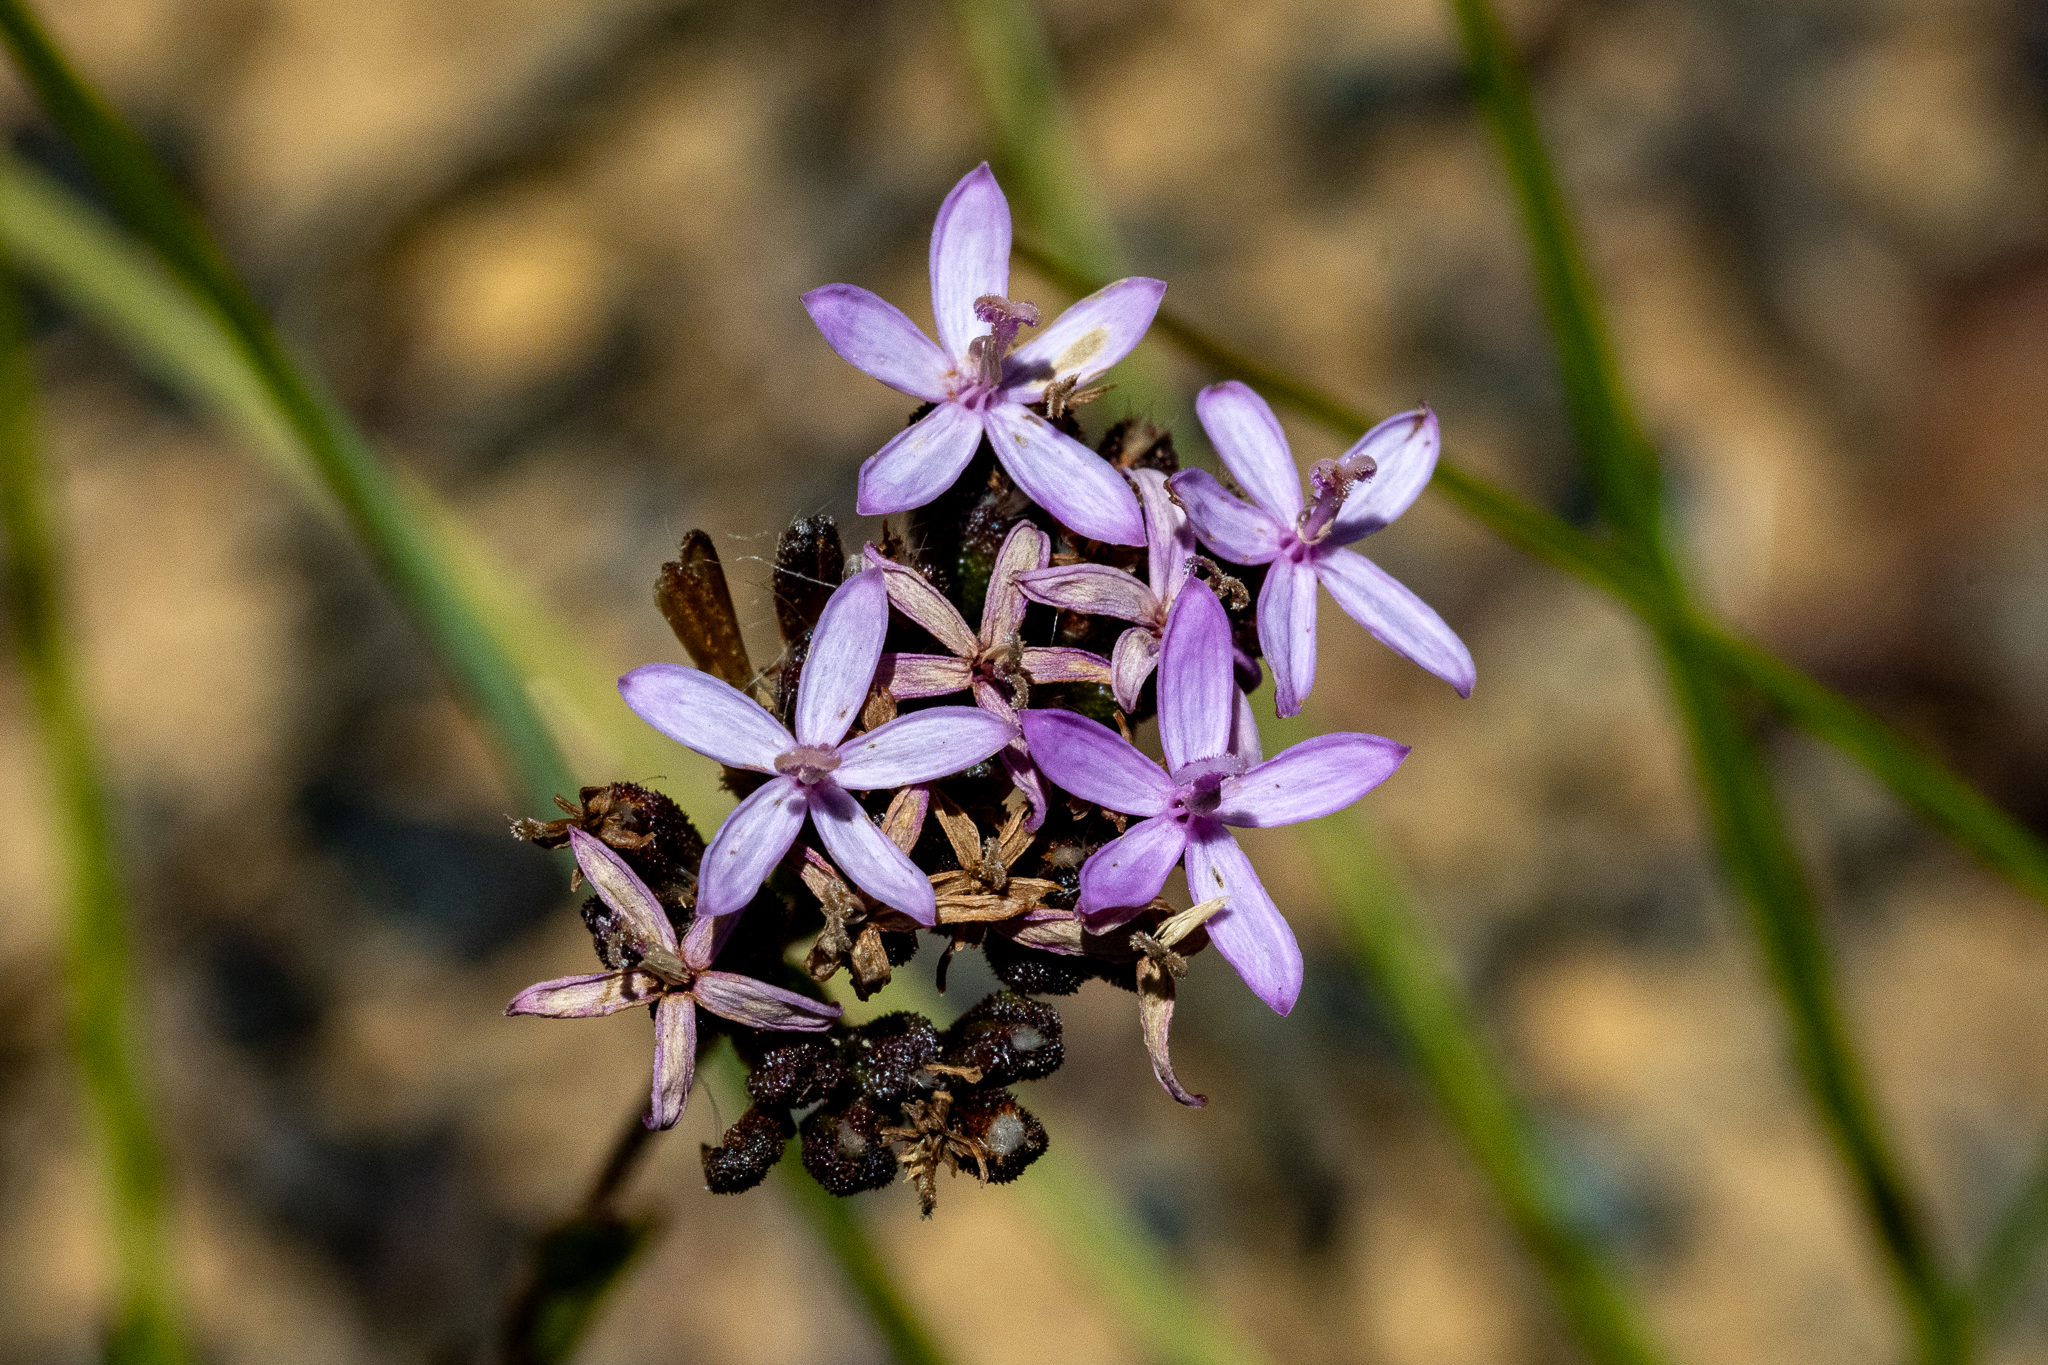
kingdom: Plantae
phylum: Tracheophyta
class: Magnoliopsida
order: Asterales
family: Asteraceae
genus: Corymbium
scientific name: Corymbium africanum
